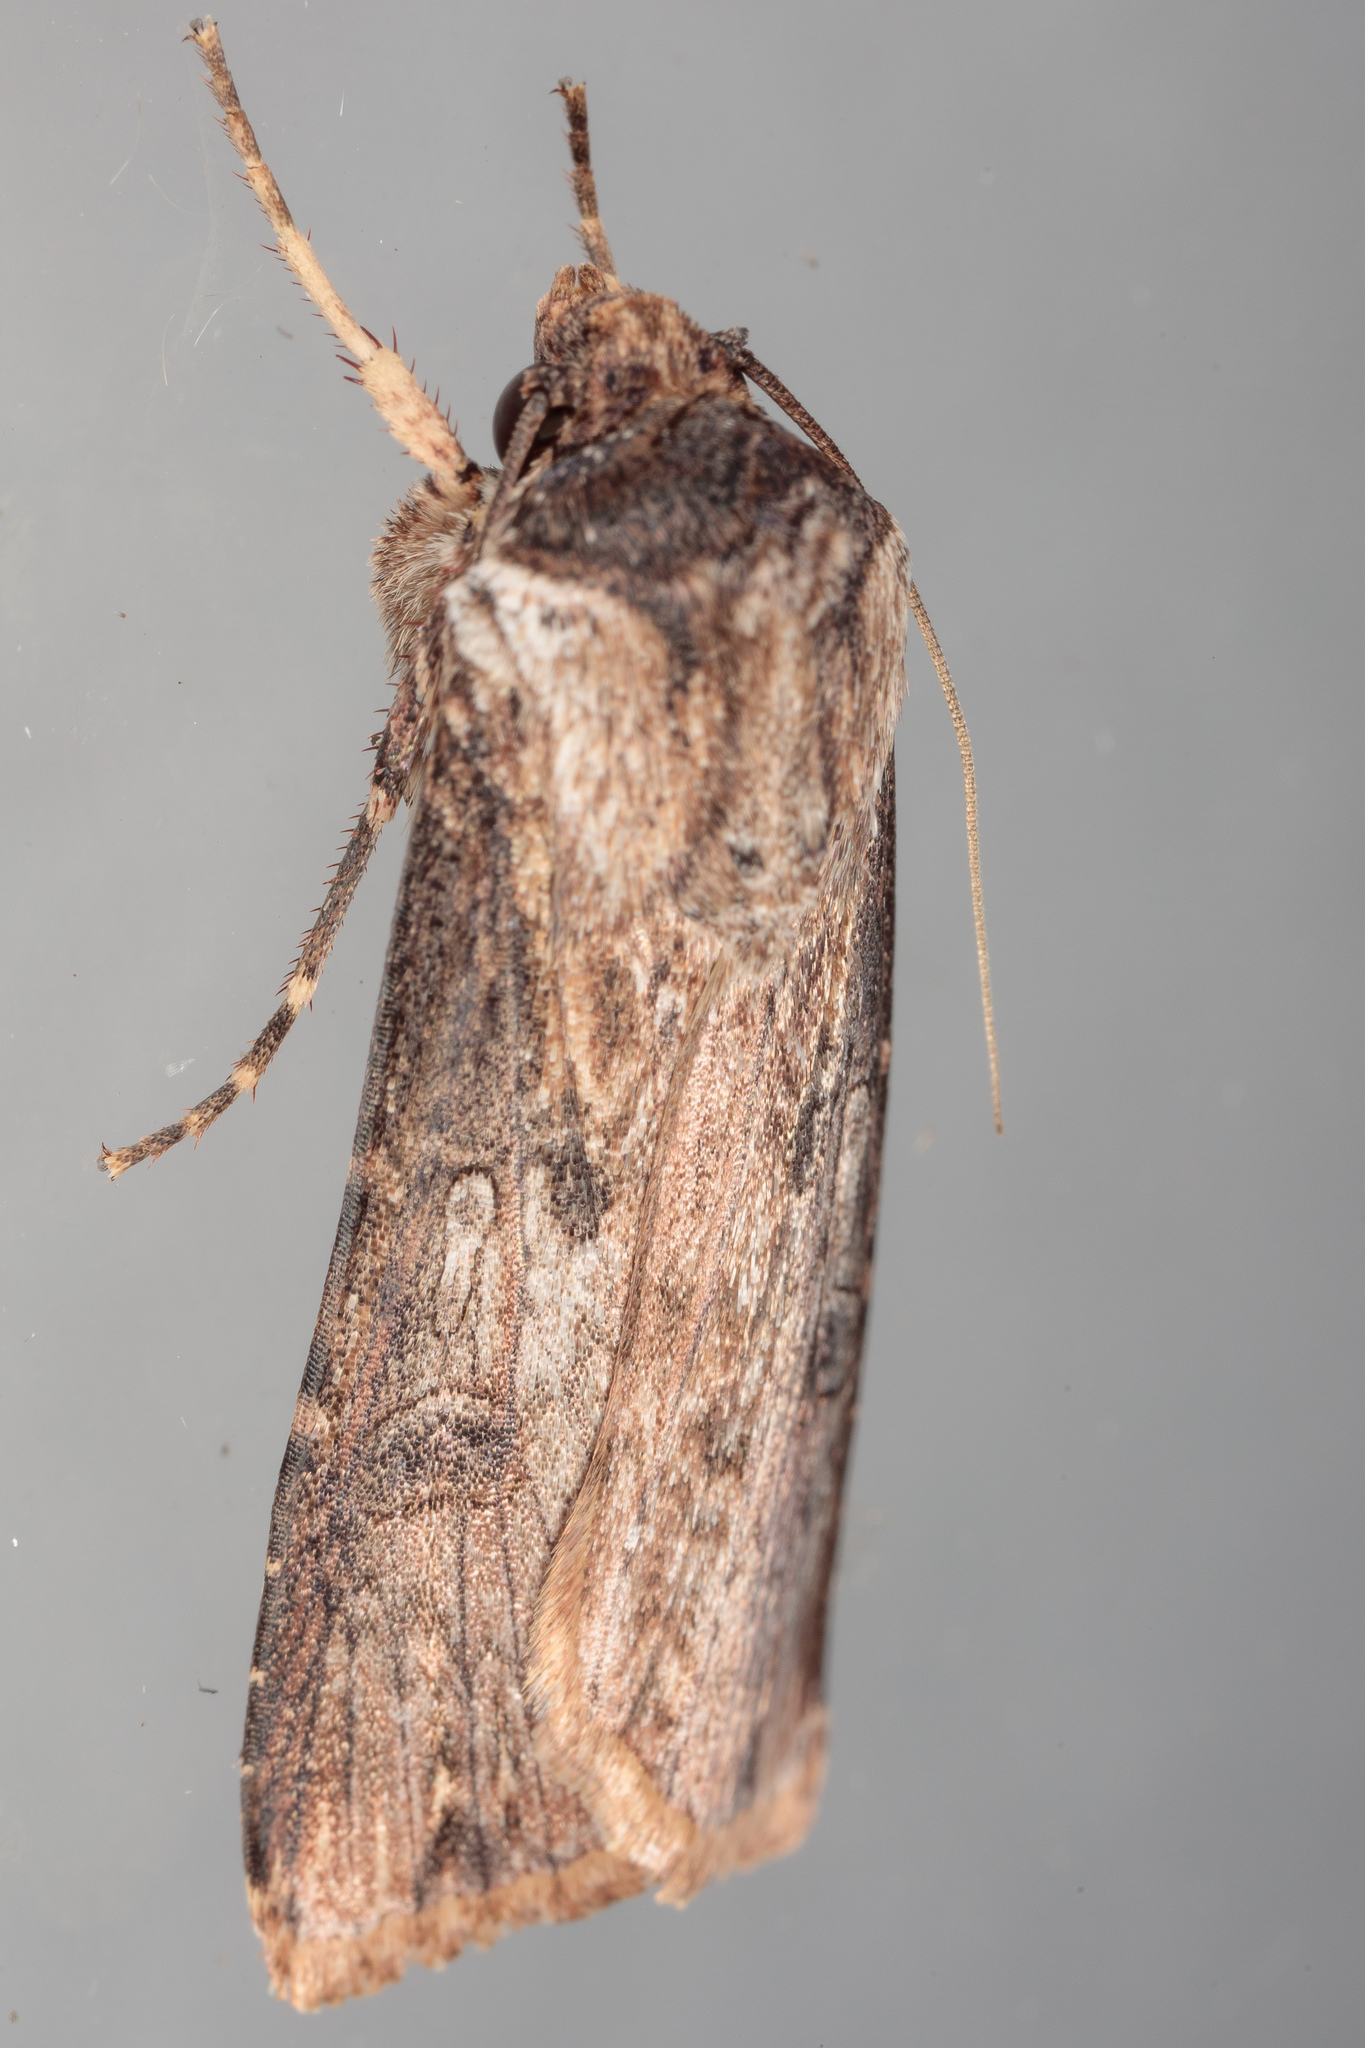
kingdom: Animalia
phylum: Arthropoda
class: Insecta
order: Lepidoptera
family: Noctuidae
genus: Agrotis
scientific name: Agrotis malefida
